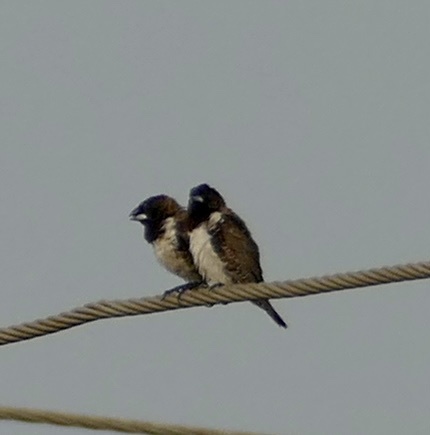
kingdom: Animalia
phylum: Chordata
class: Aves
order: Passeriformes
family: Estrildidae
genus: Lonchura
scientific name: Lonchura cucullata
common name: Bronze mannikin
